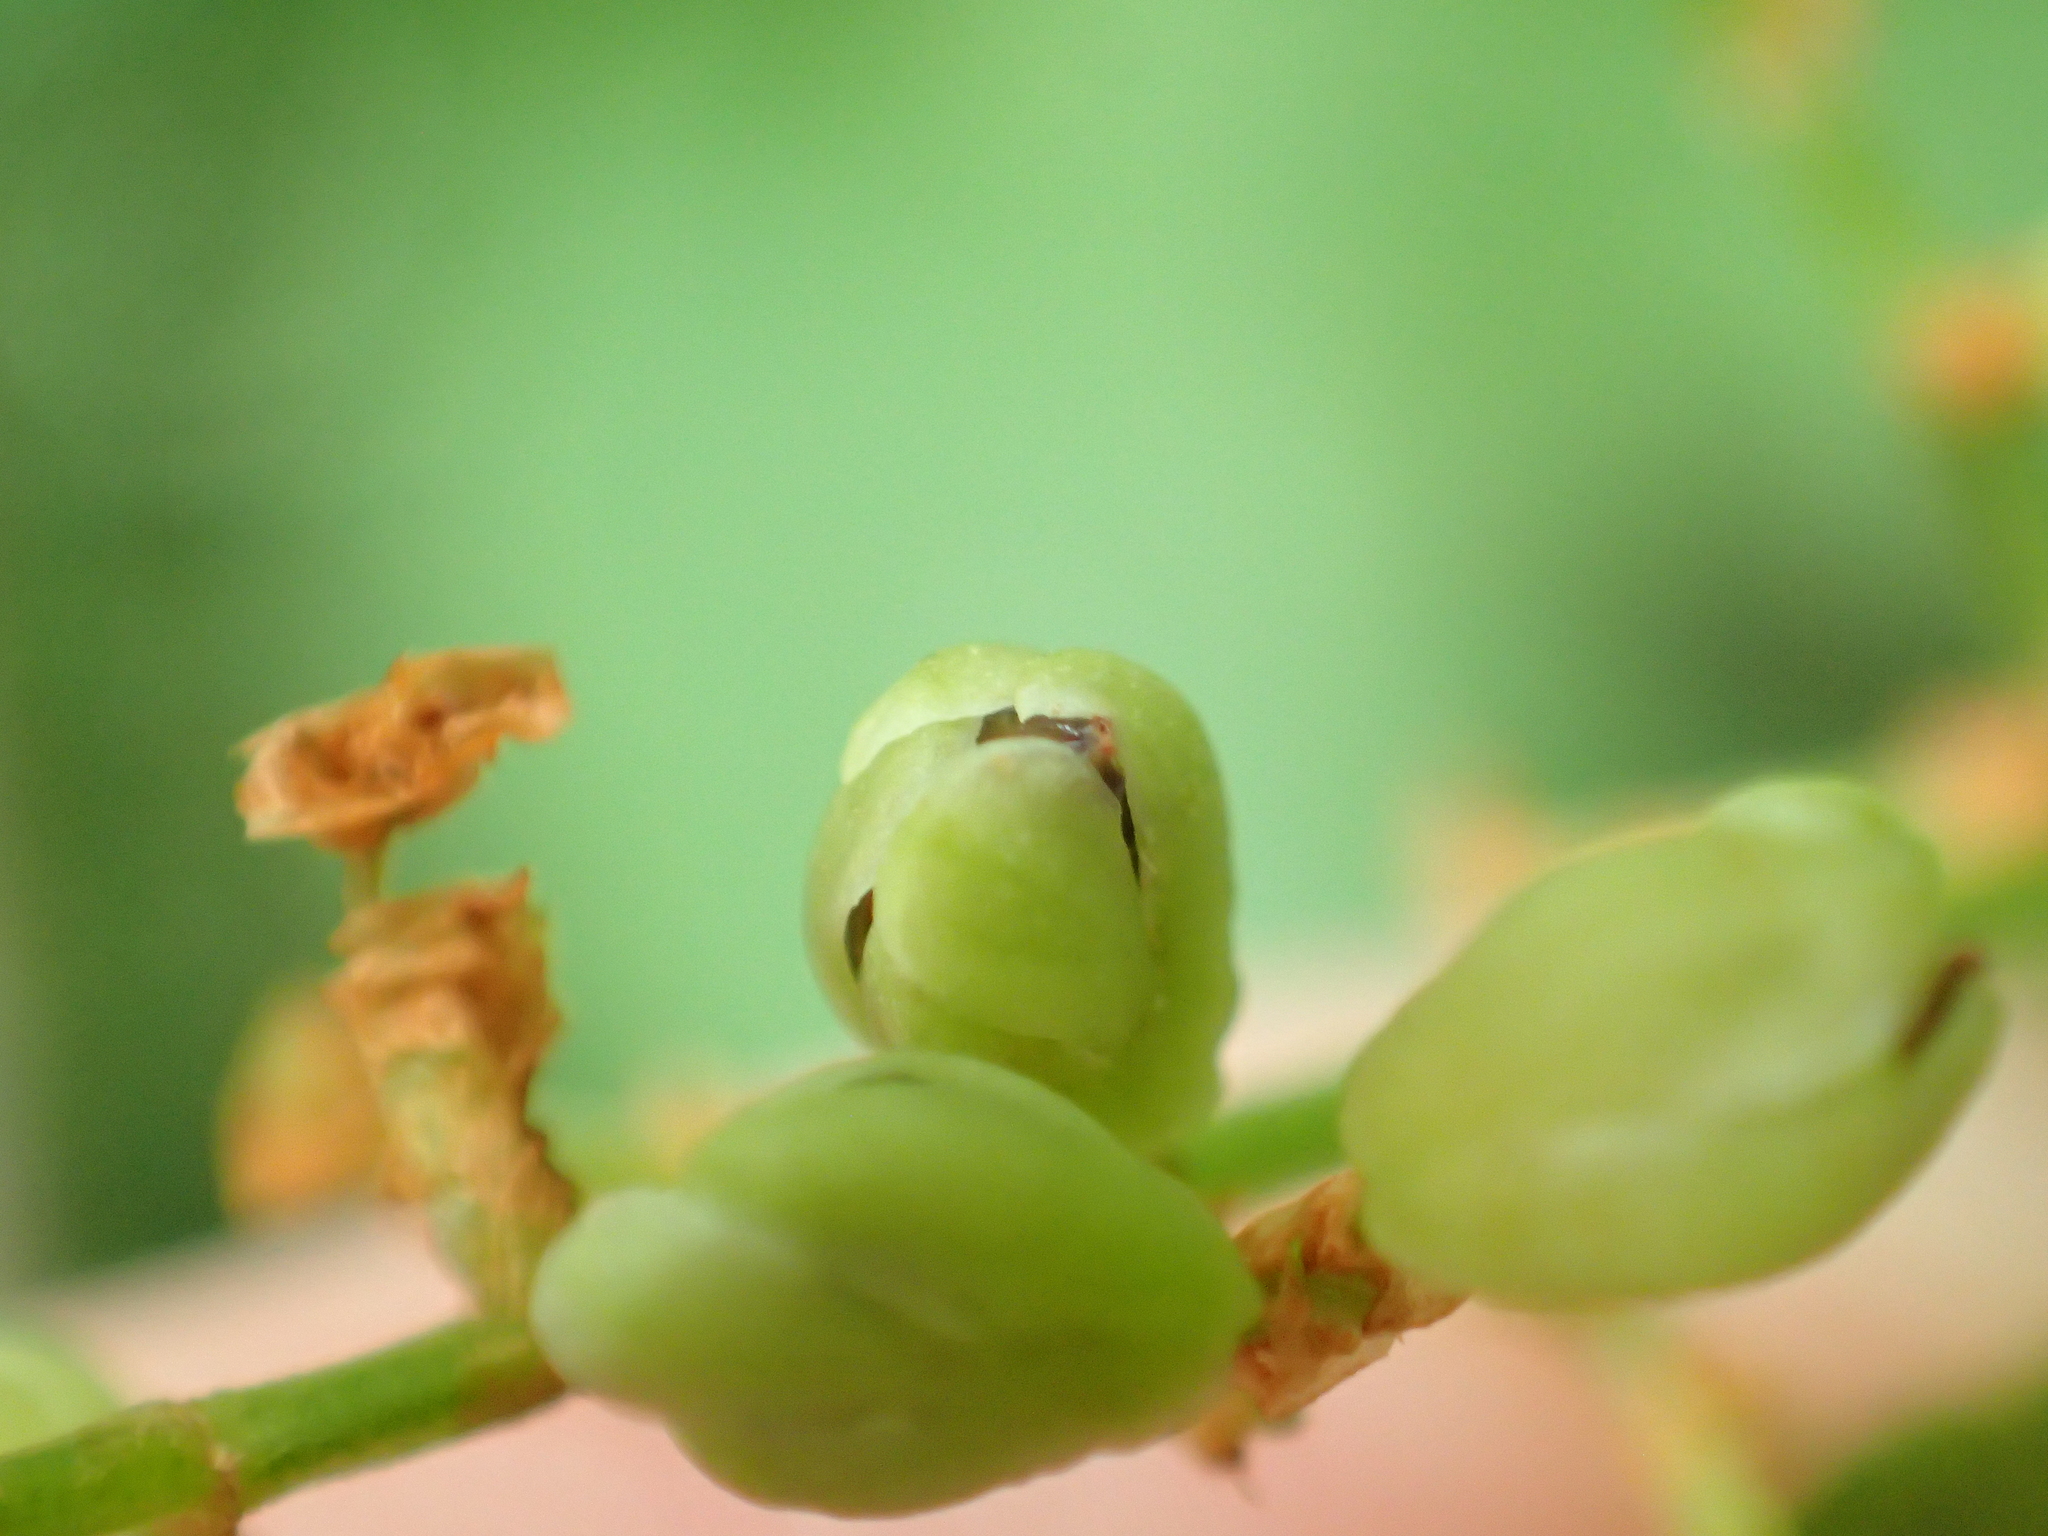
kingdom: Plantae
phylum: Tracheophyta
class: Magnoliopsida
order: Caryophyllales
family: Polygonaceae
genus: Muehlenbeckia
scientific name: Muehlenbeckia australis
